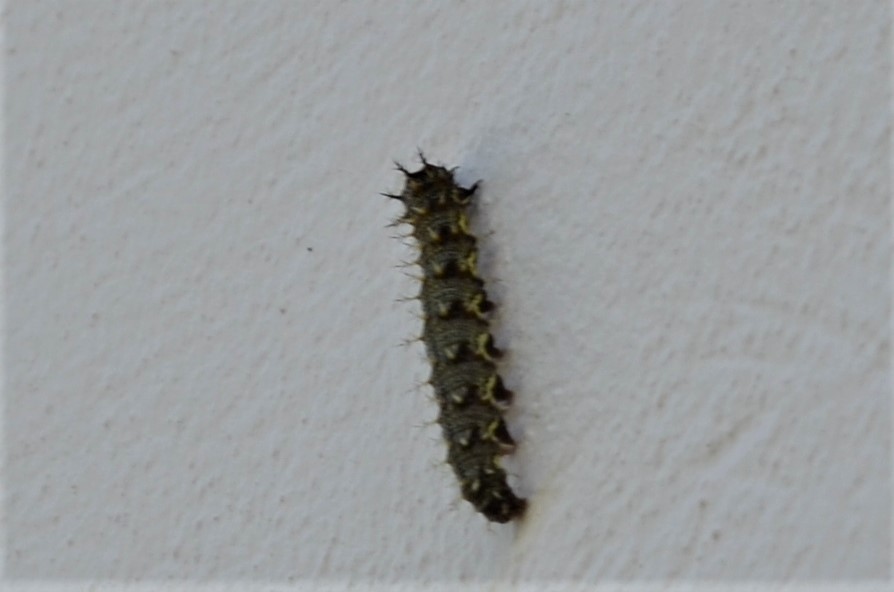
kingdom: Animalia
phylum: Arthropoda
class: Insecta
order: Lepidoptera
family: Nymphalidae
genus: Vanessa
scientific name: Vanessa atalanta
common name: Red admiral
